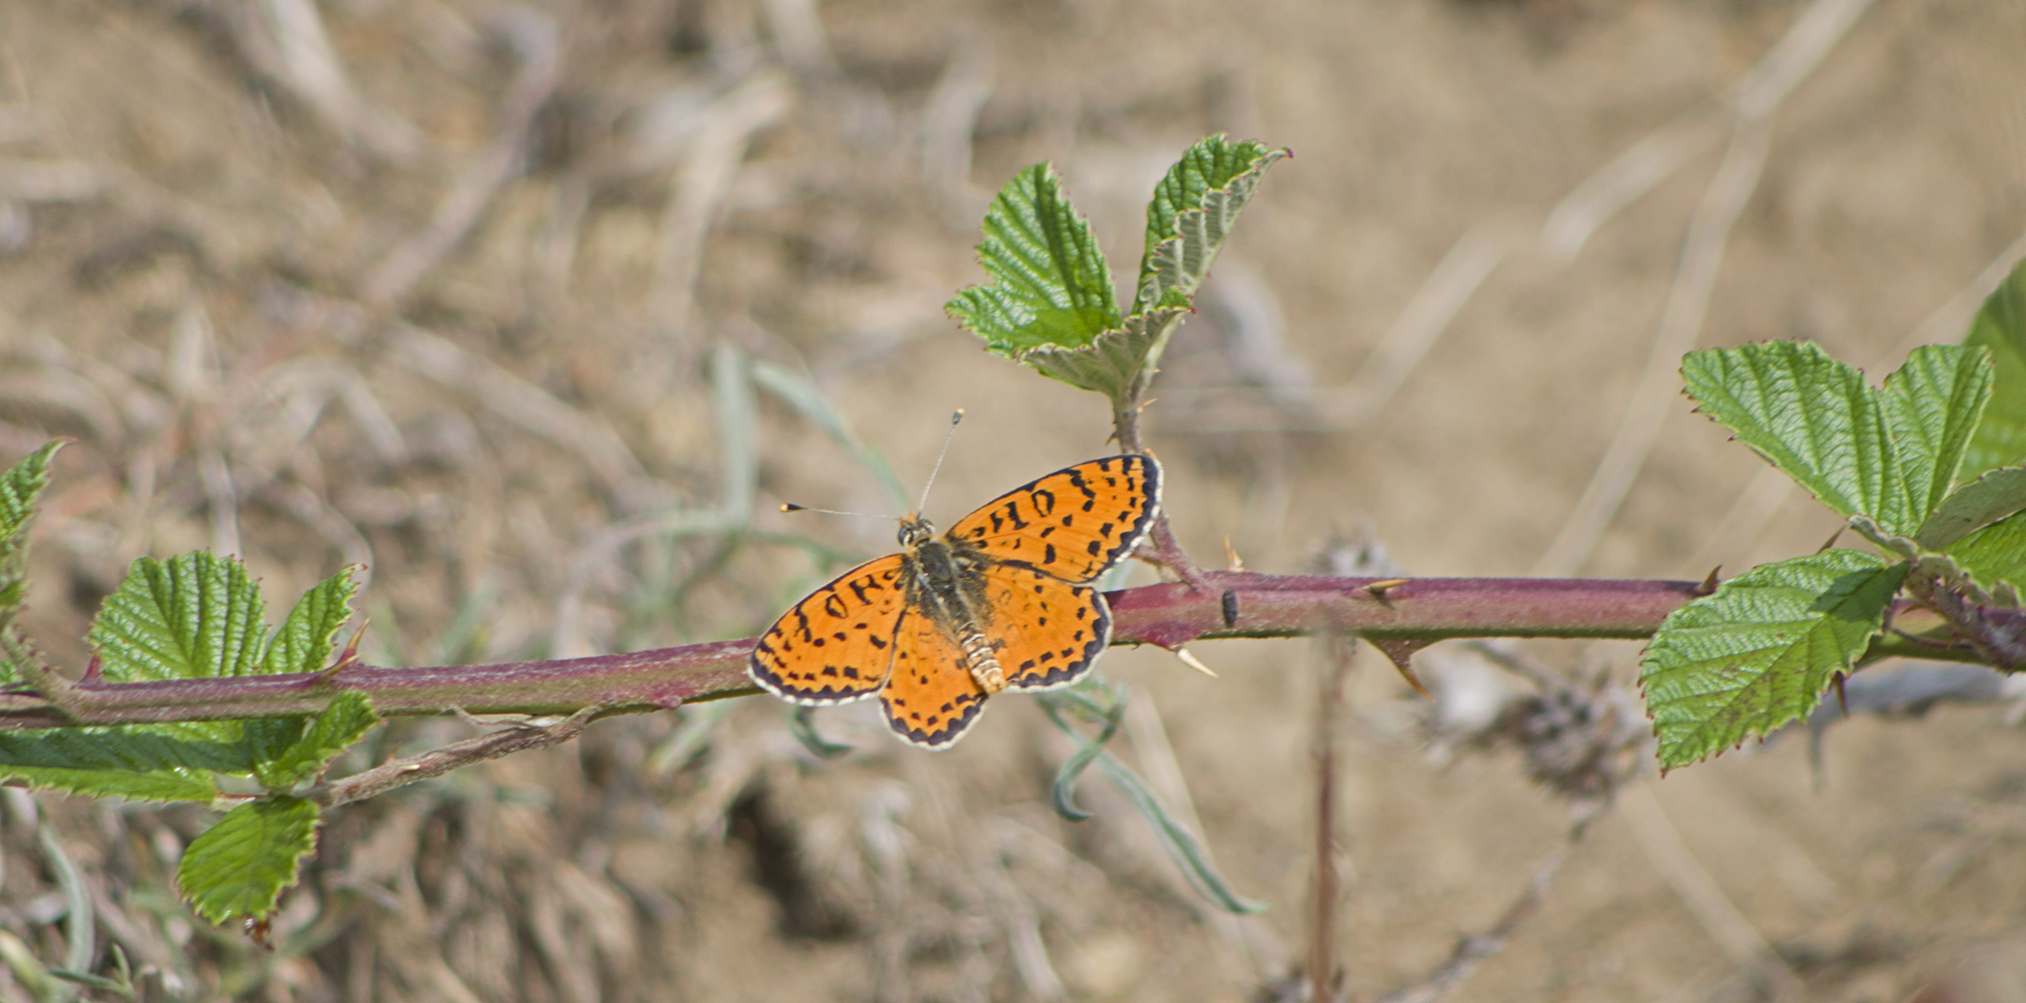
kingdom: Animalia
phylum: Arthropoda
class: Insecta
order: Lepidoptera
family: Nymphalidae
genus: Melitaea
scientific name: Melitaea didyma
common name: Spotted fritillary
